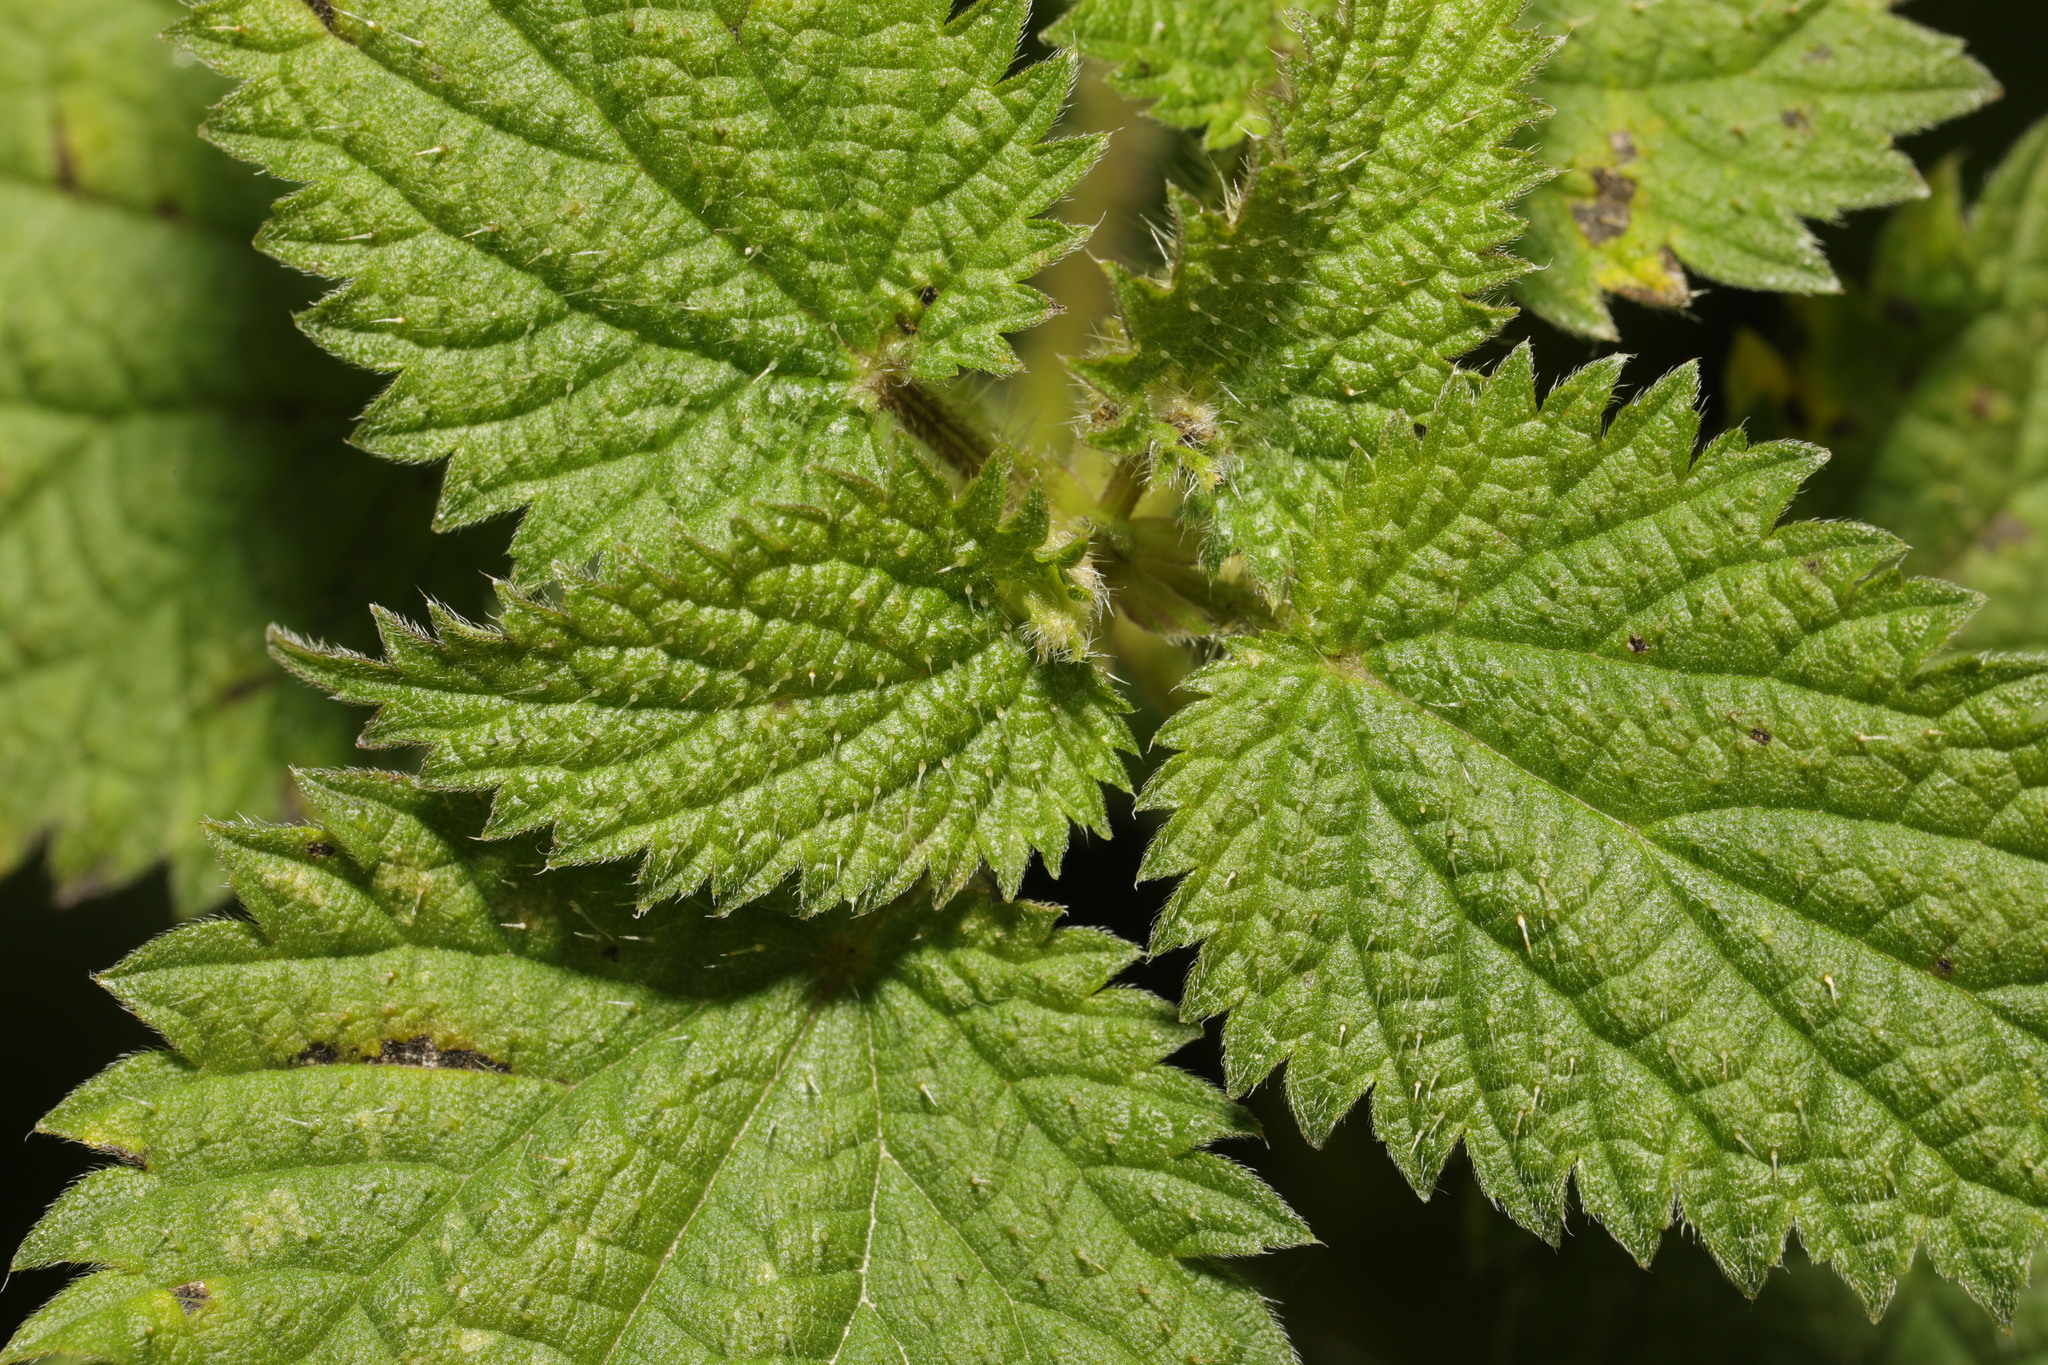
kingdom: Animalia
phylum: Arthropoda
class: Insecta
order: Diptera
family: Cecidomyiidae
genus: Dasineura
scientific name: Dasineura urticae
